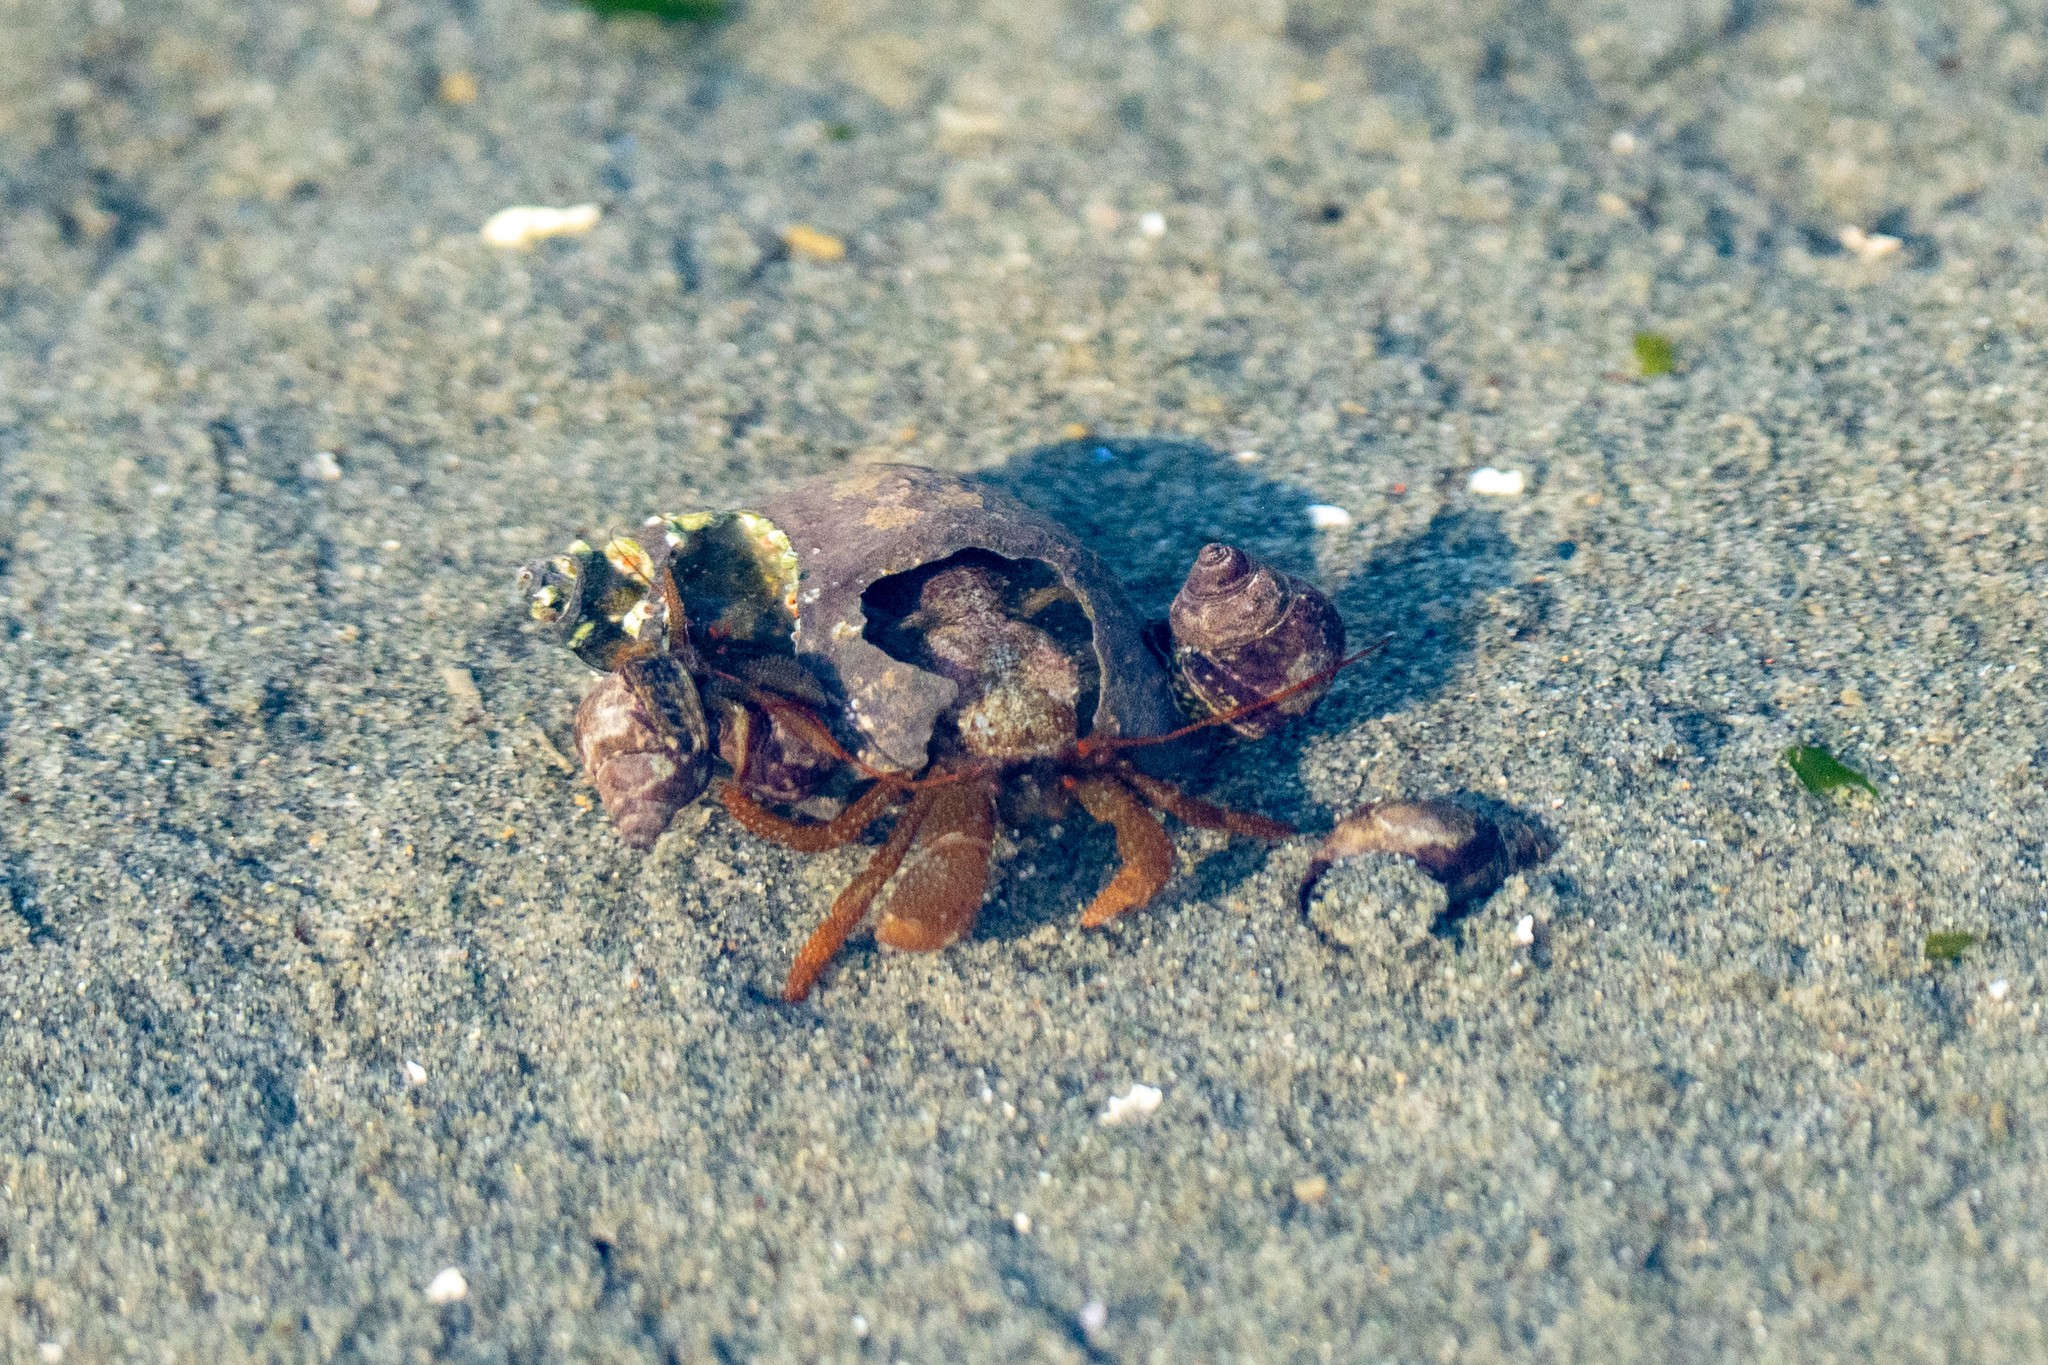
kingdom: Animalia
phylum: Arthropoda
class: Malacostraca
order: Decapoda
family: Paguridae
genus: Pagurus
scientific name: Pagurus granosimanus
